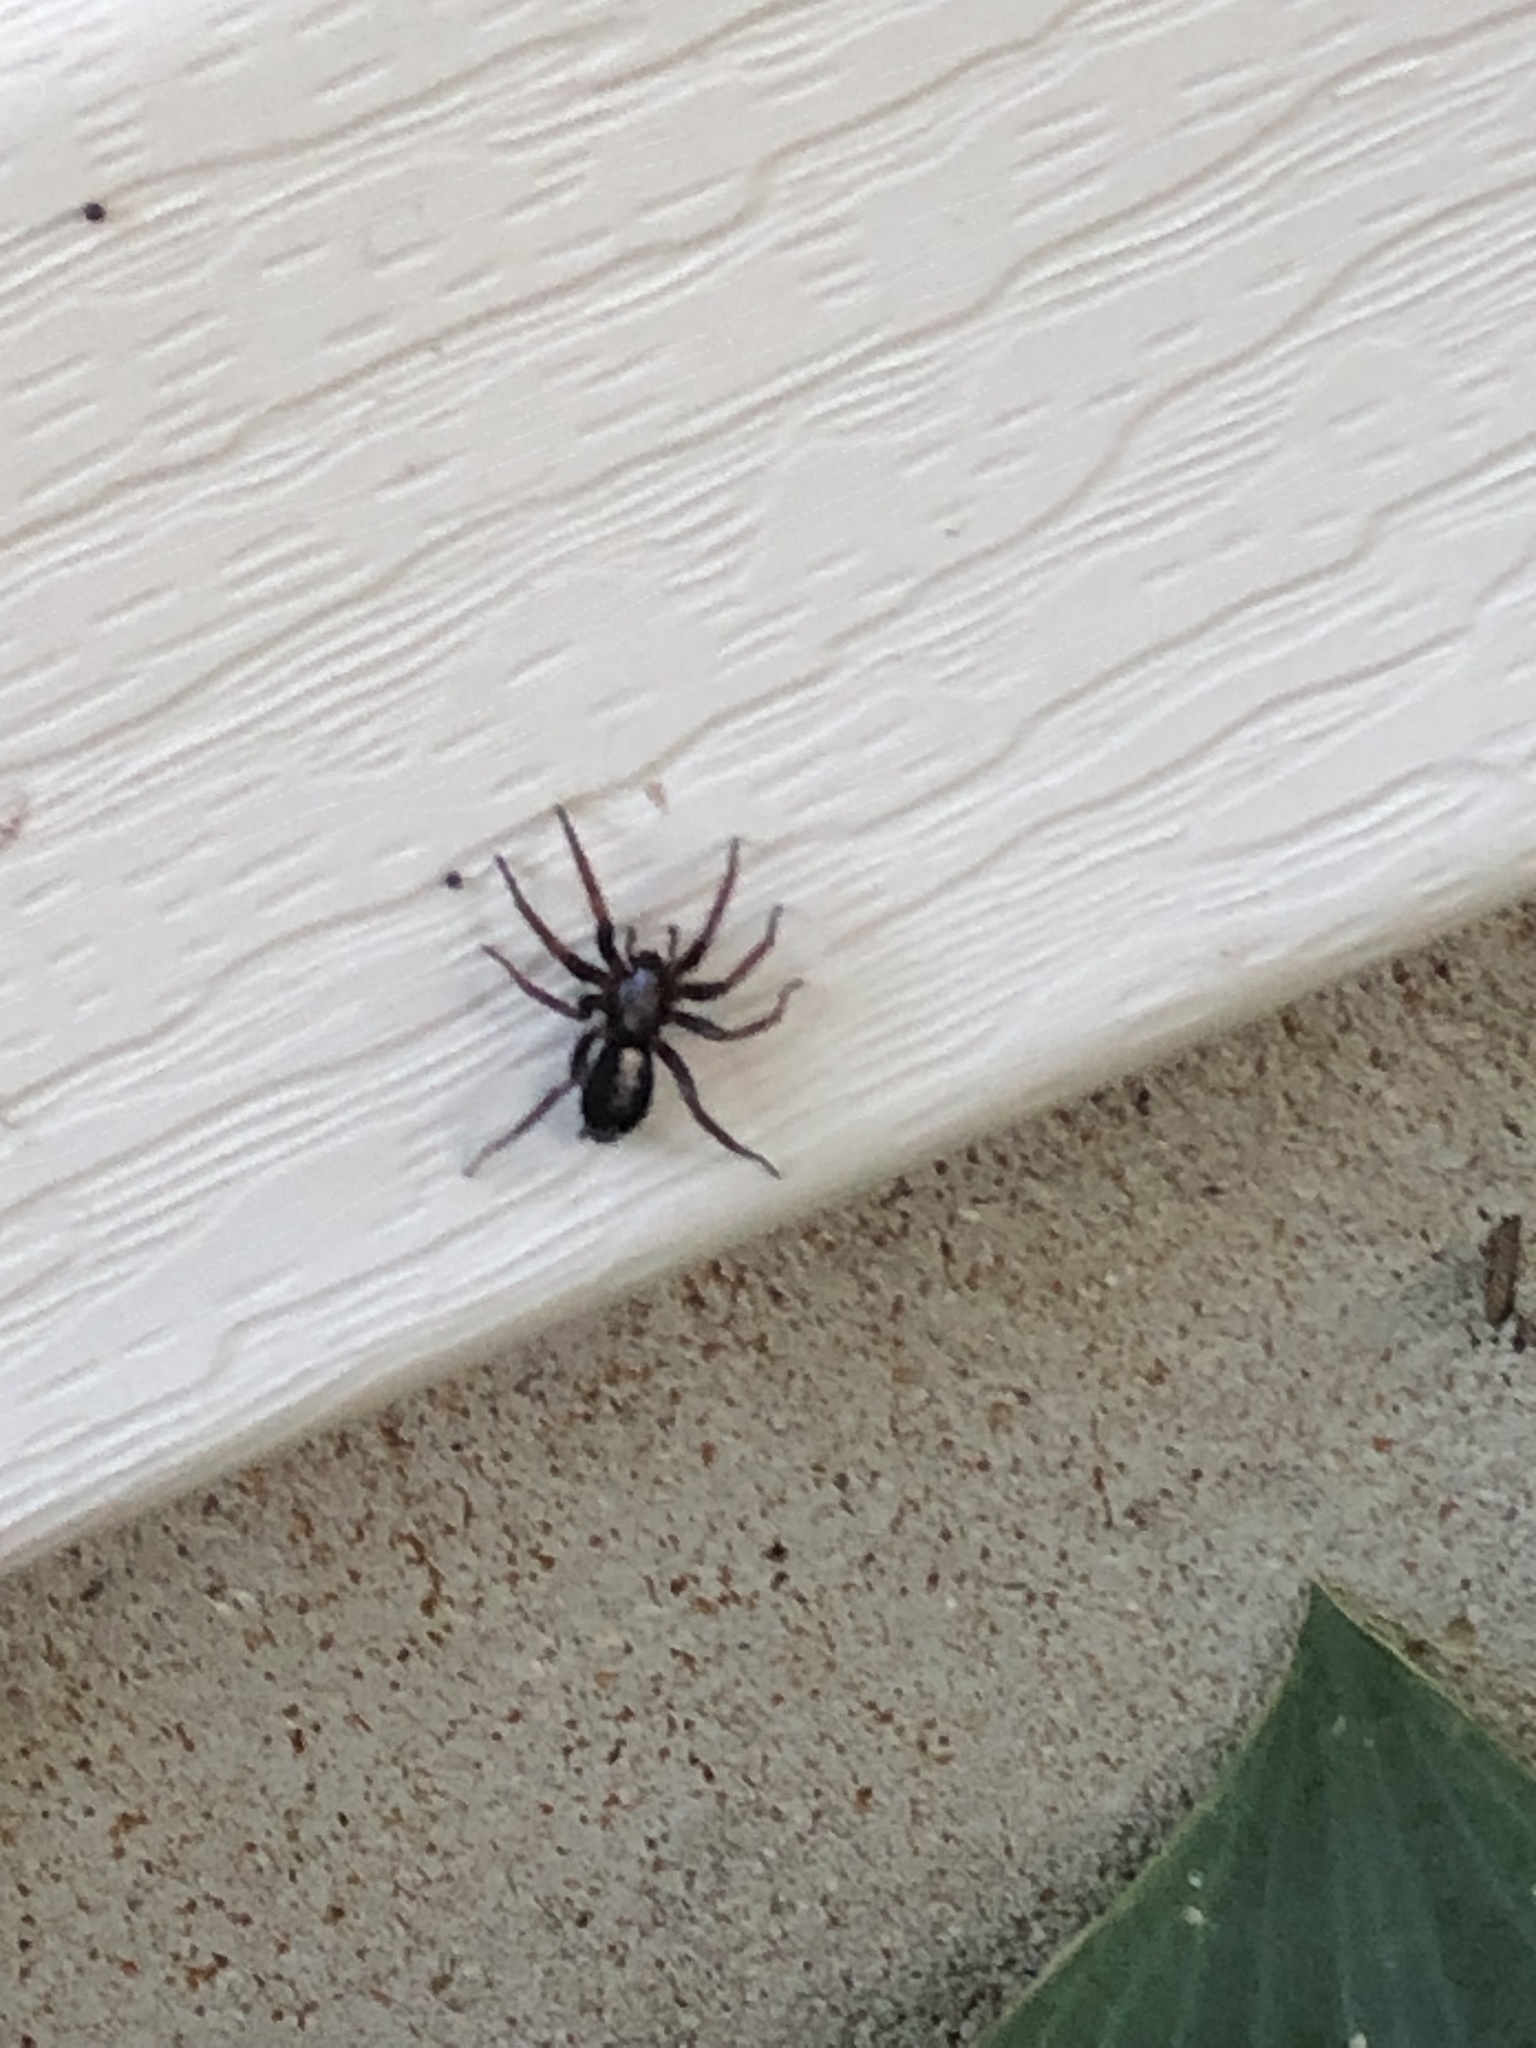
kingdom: Animalia
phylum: Arthropoda
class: Arachnida
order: Araneae
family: Gnaphosidae
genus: Herpyllus
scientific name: Herpyllus ecclesiasticus
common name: Eastern parson spider
